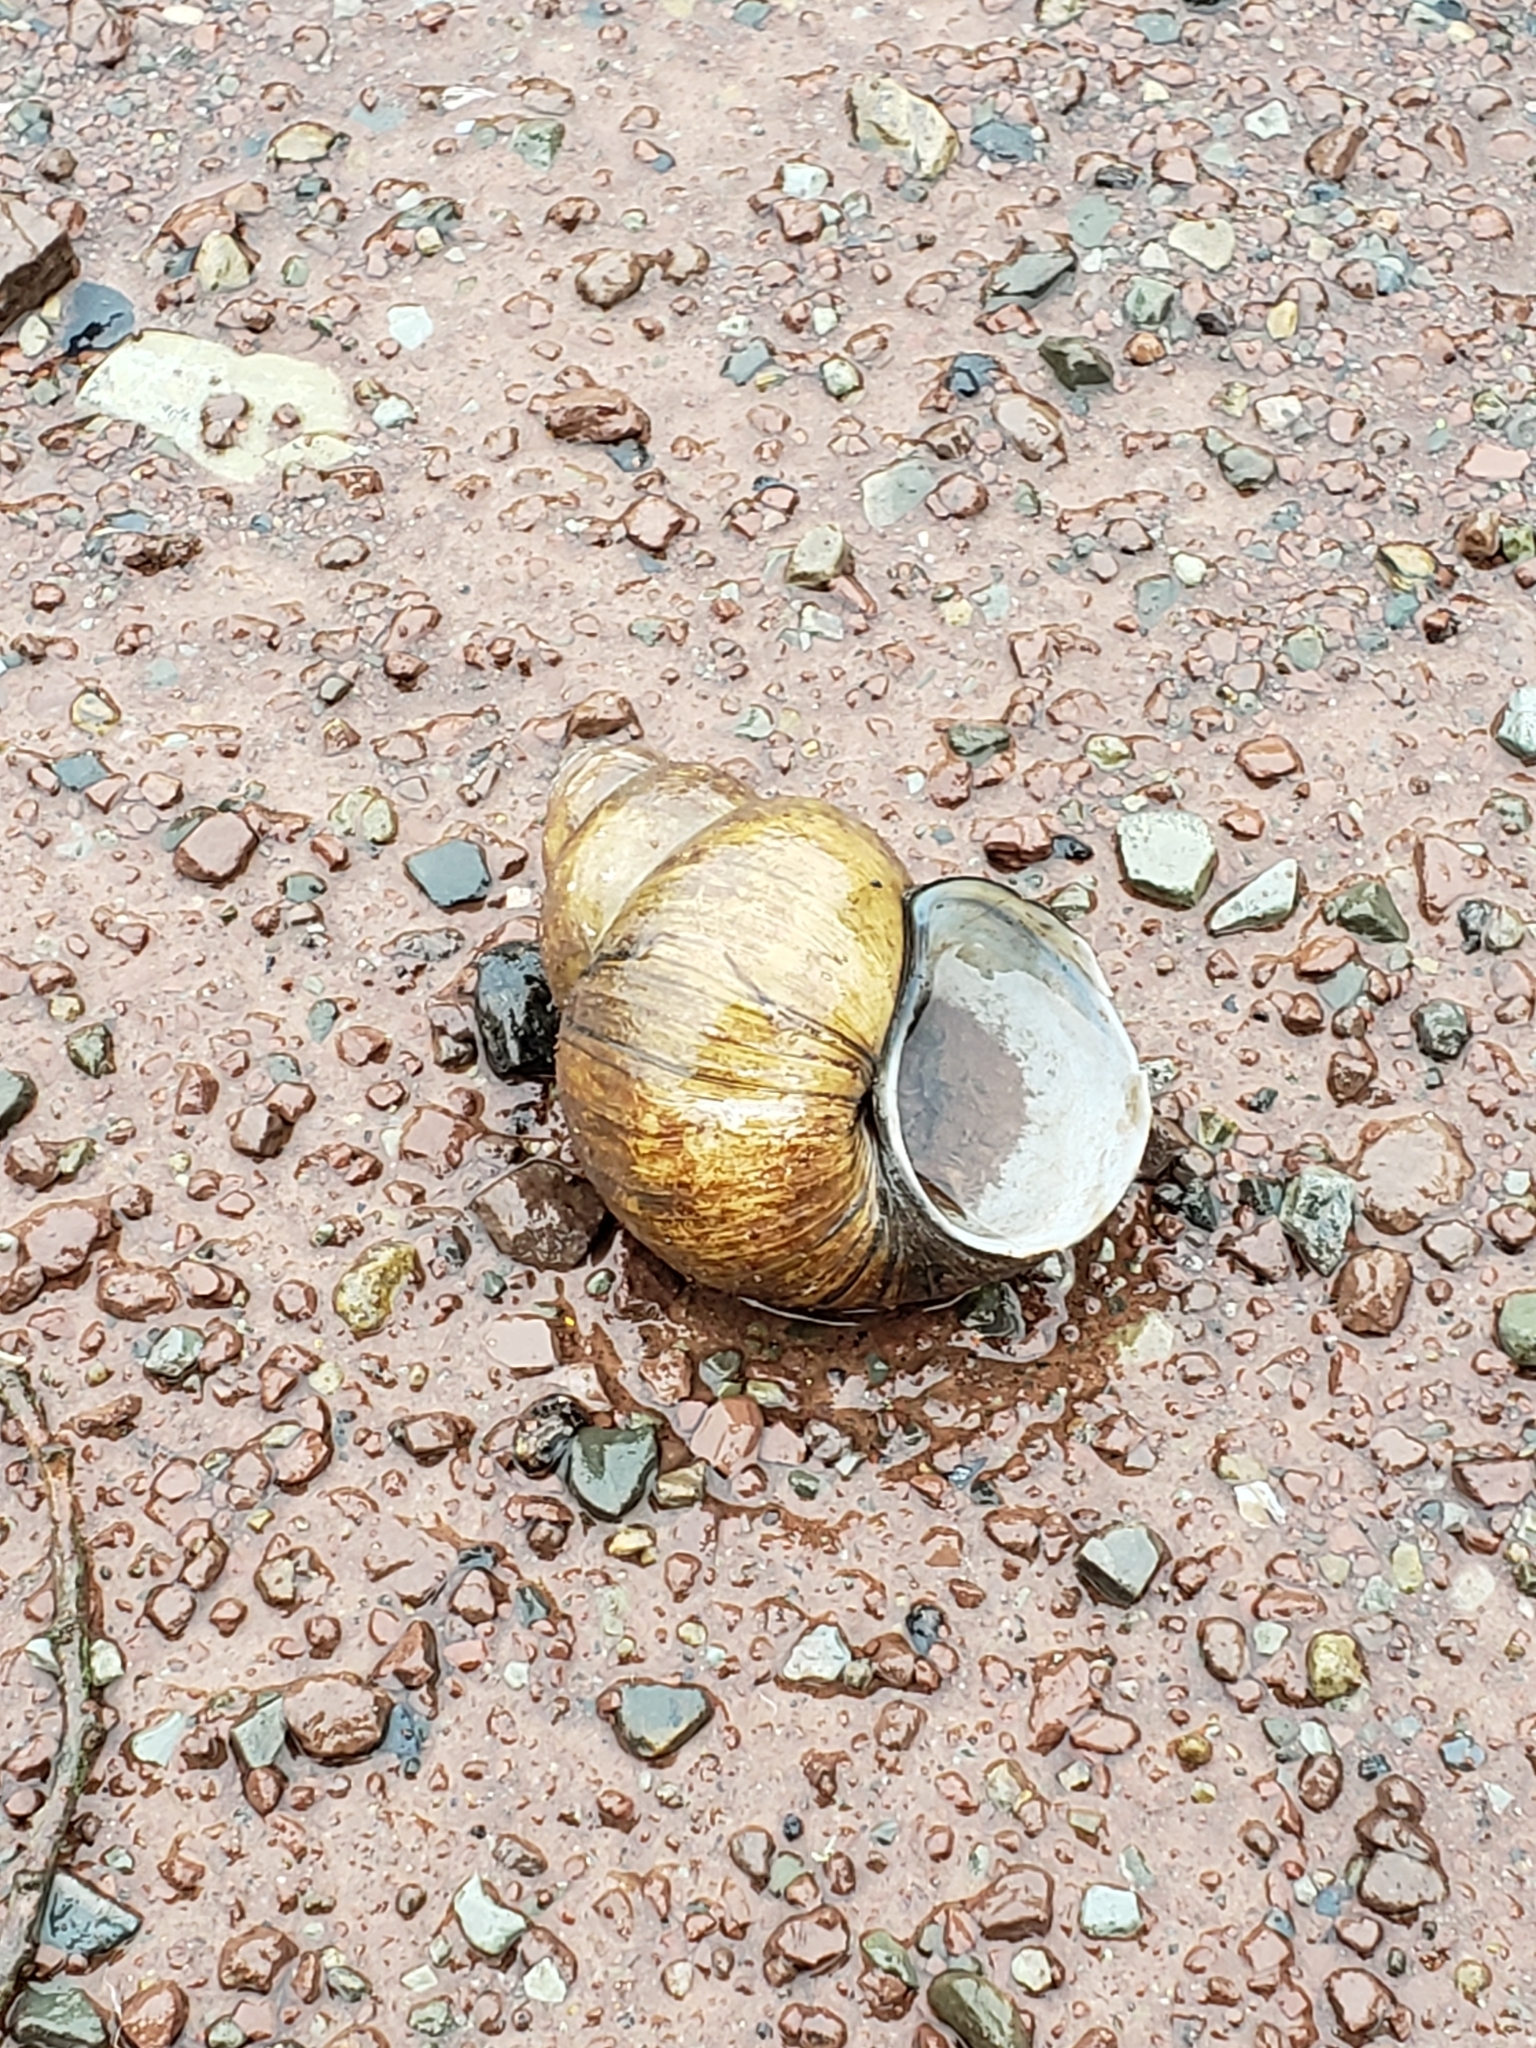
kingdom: Animalia
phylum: Mollusca
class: Gastropoda
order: Architaenioglossa
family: Viviparidae
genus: Cipangopaludina
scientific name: Cipangopaludina chinensis
